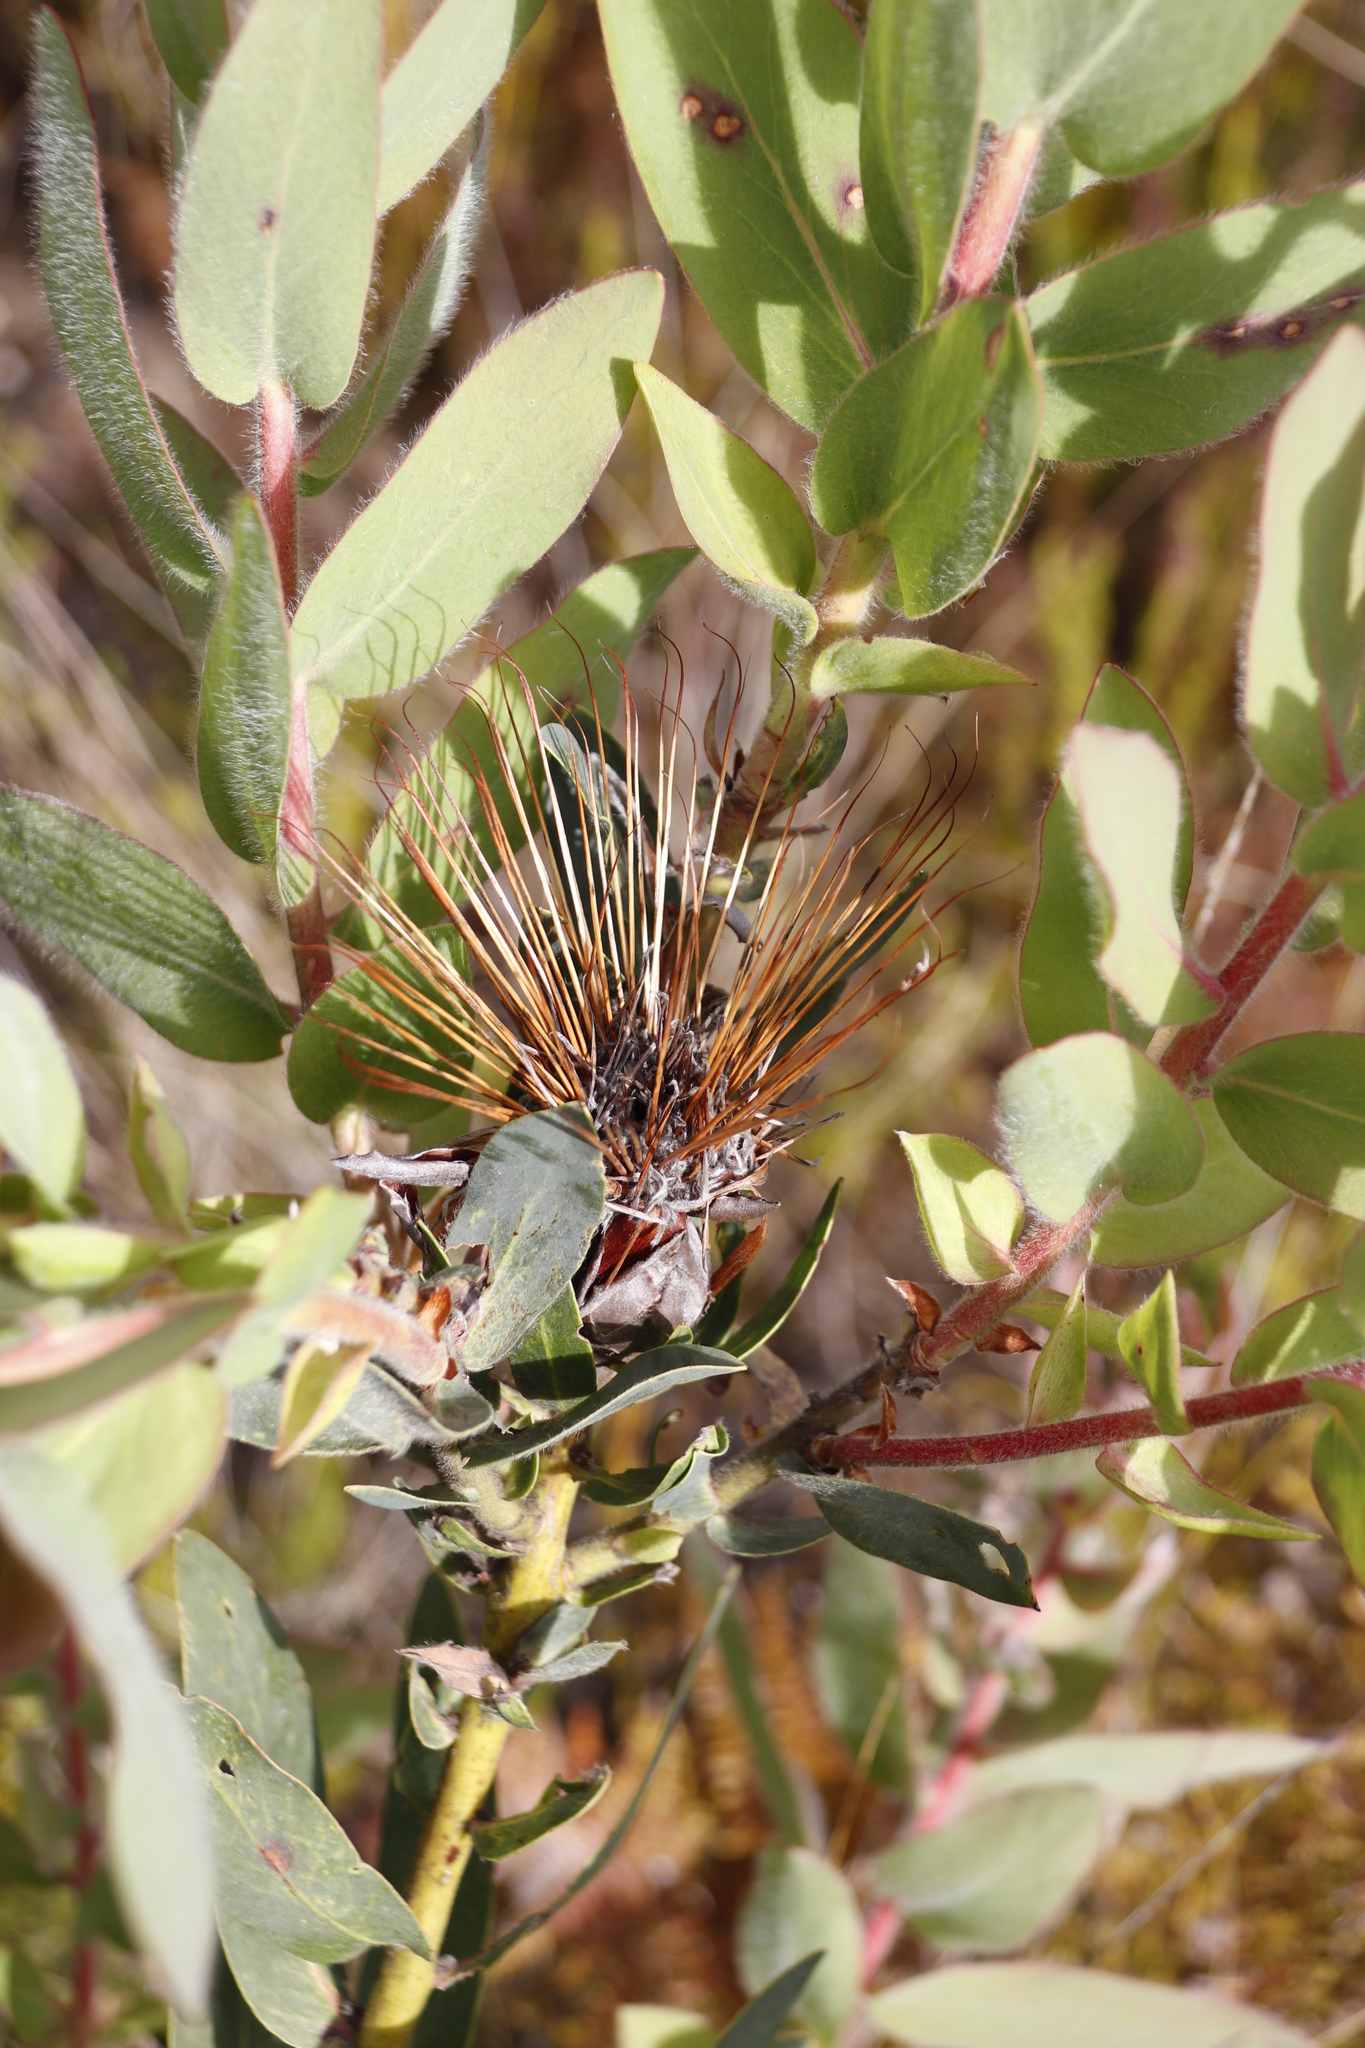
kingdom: Plantae
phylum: Tracheophyta
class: Magnoliopsida
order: Proteales
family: Proteaceae
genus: Protea
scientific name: Protea aurea
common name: Shuttlecock sugarbush
